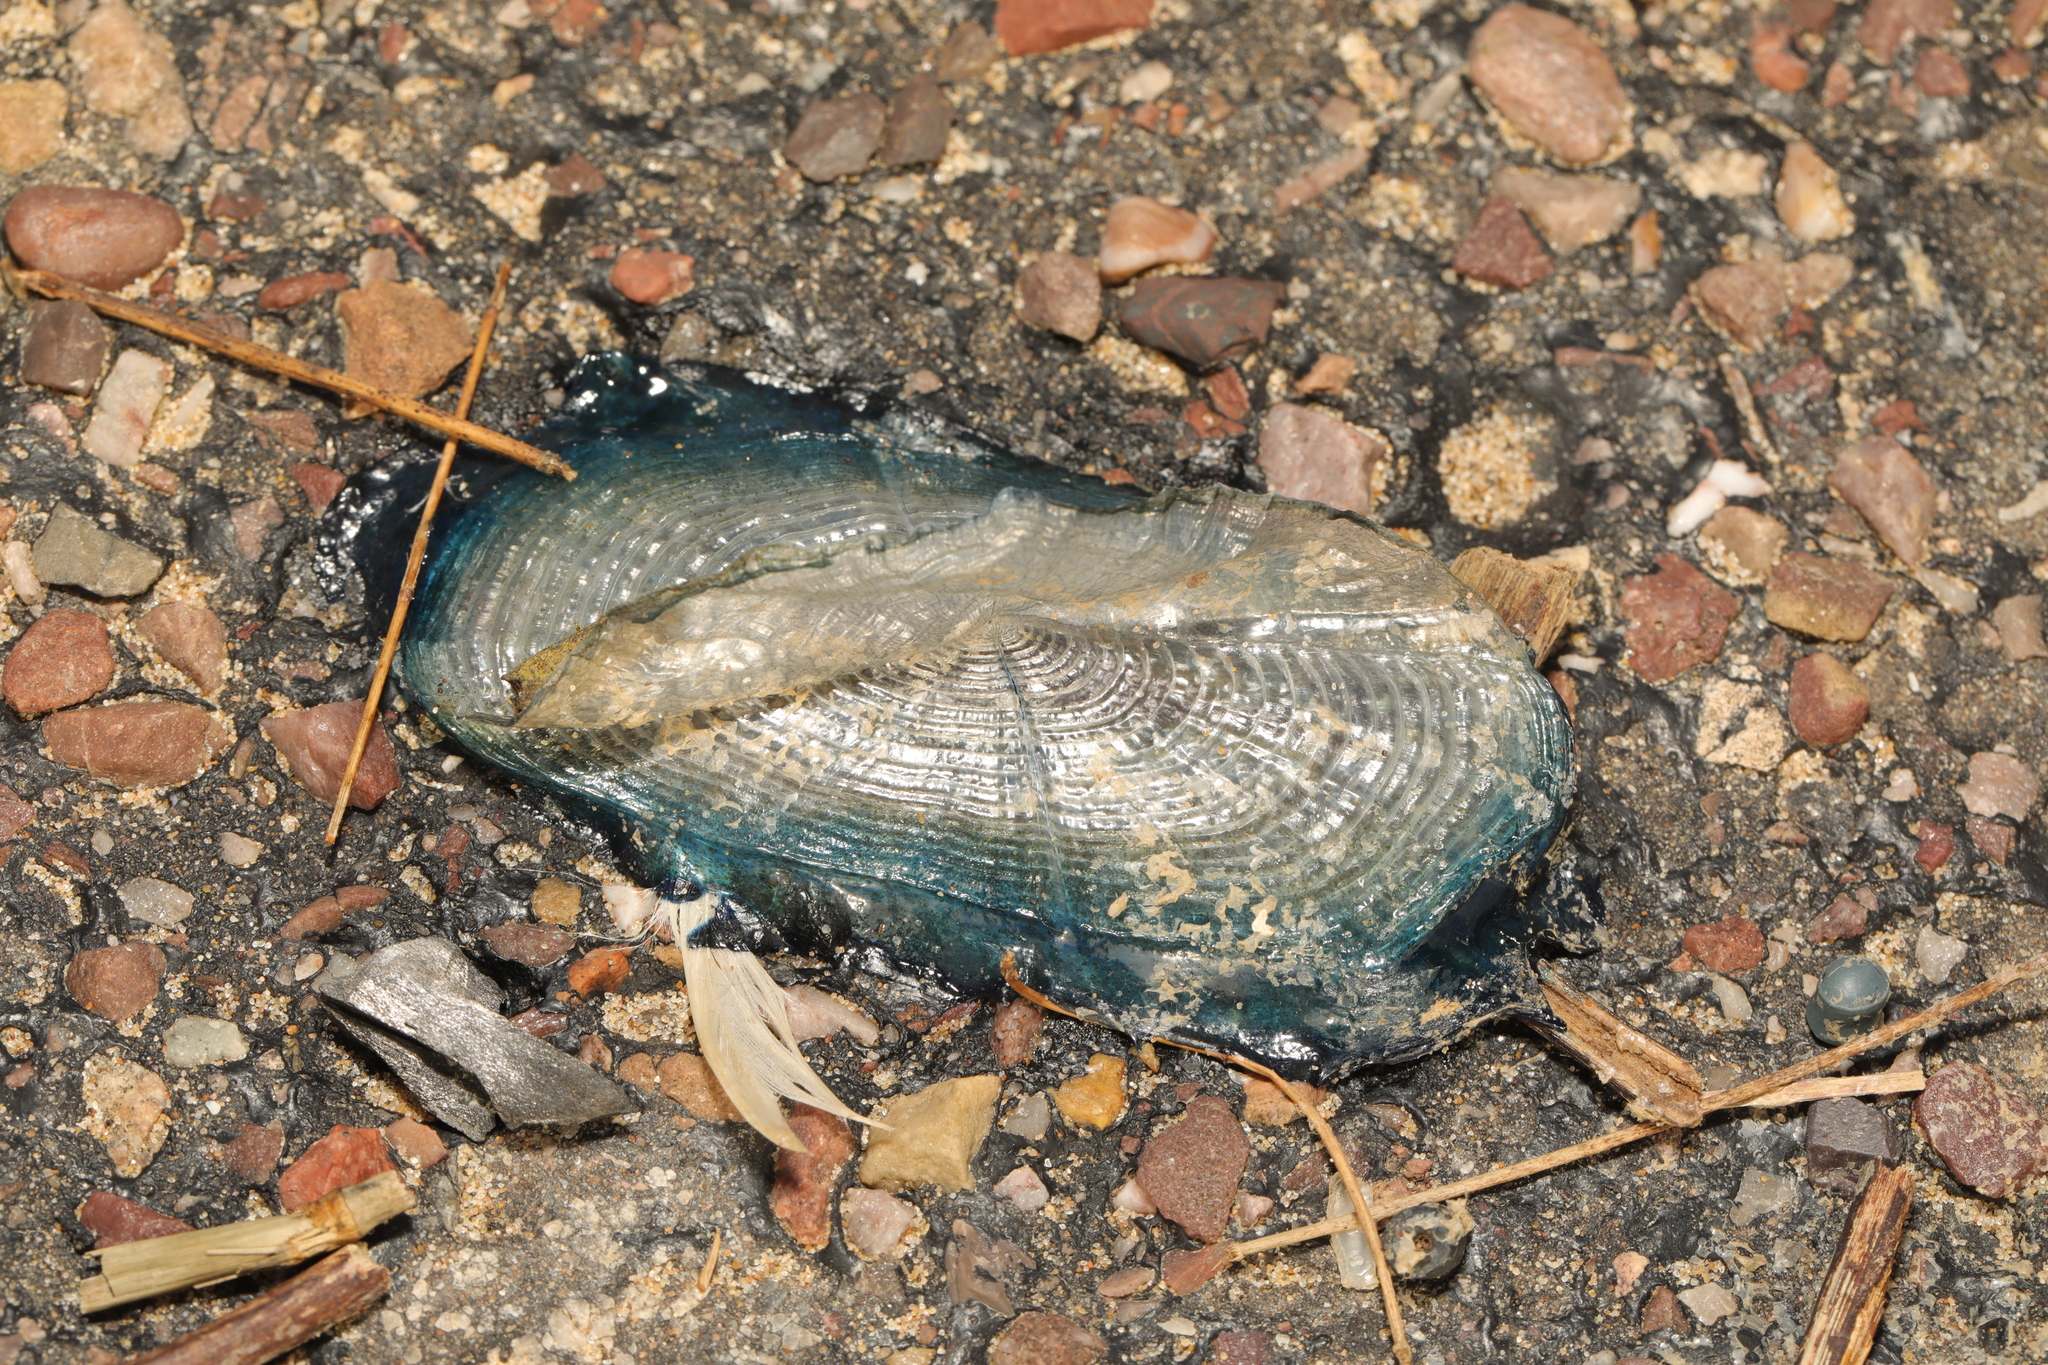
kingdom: Animalia
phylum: Cnidaria
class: Hydrozoa
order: Anthoathecata
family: Porpitidae
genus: Velella
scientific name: Velella velella
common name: By-the-wind-sailor
